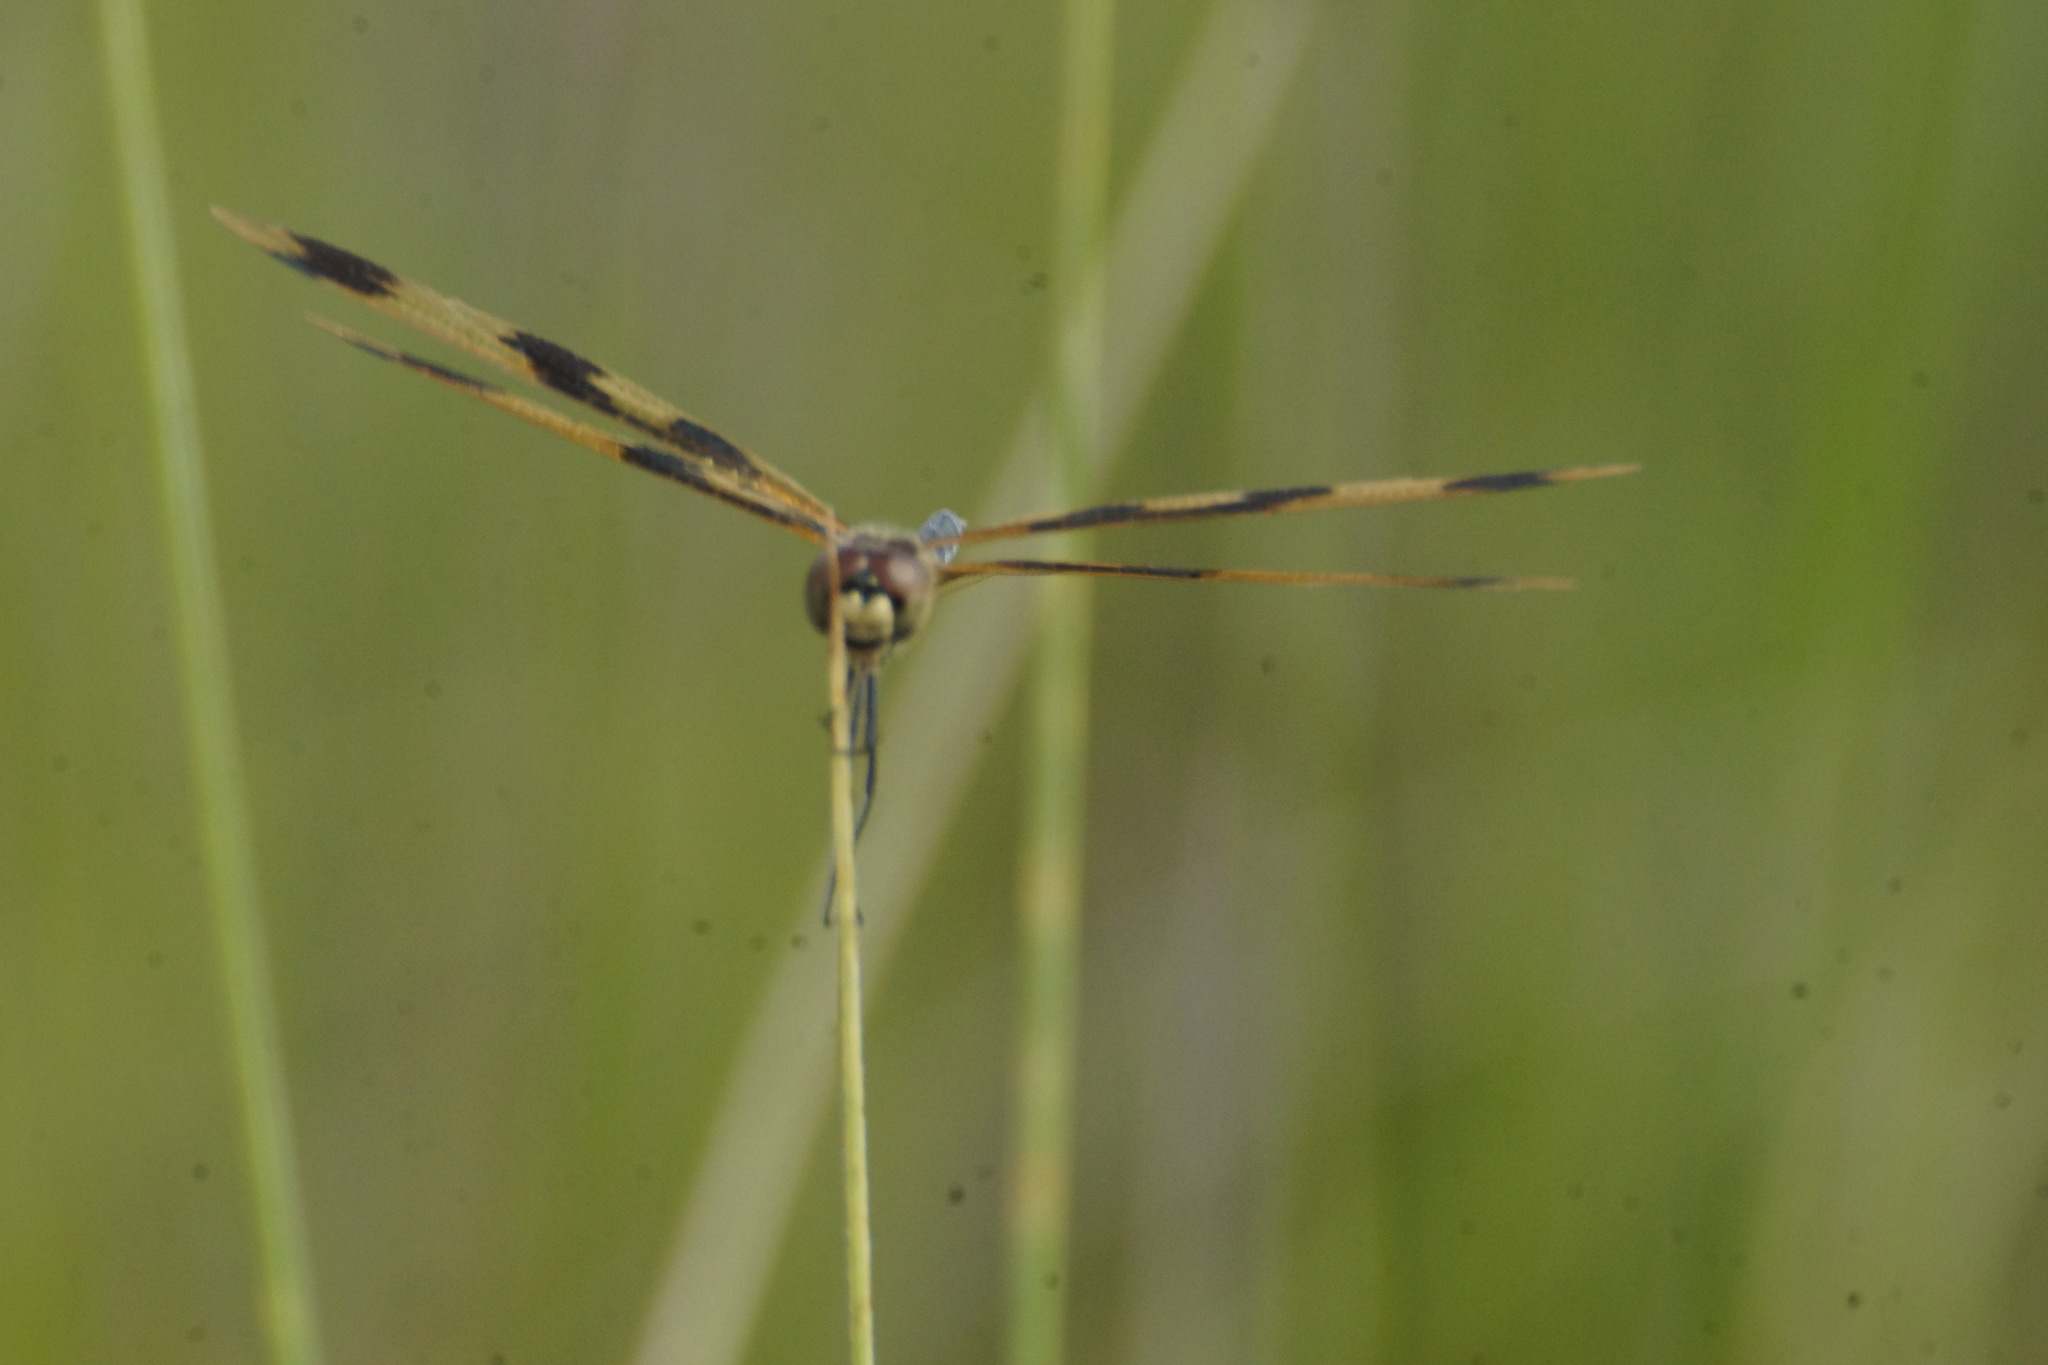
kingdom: Animalia
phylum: Arthropoda
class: Insecta
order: Odonata
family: Libellulidae
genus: Rhyothemis
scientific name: Rhyothemis graphiptera
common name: Graphic flutterer
